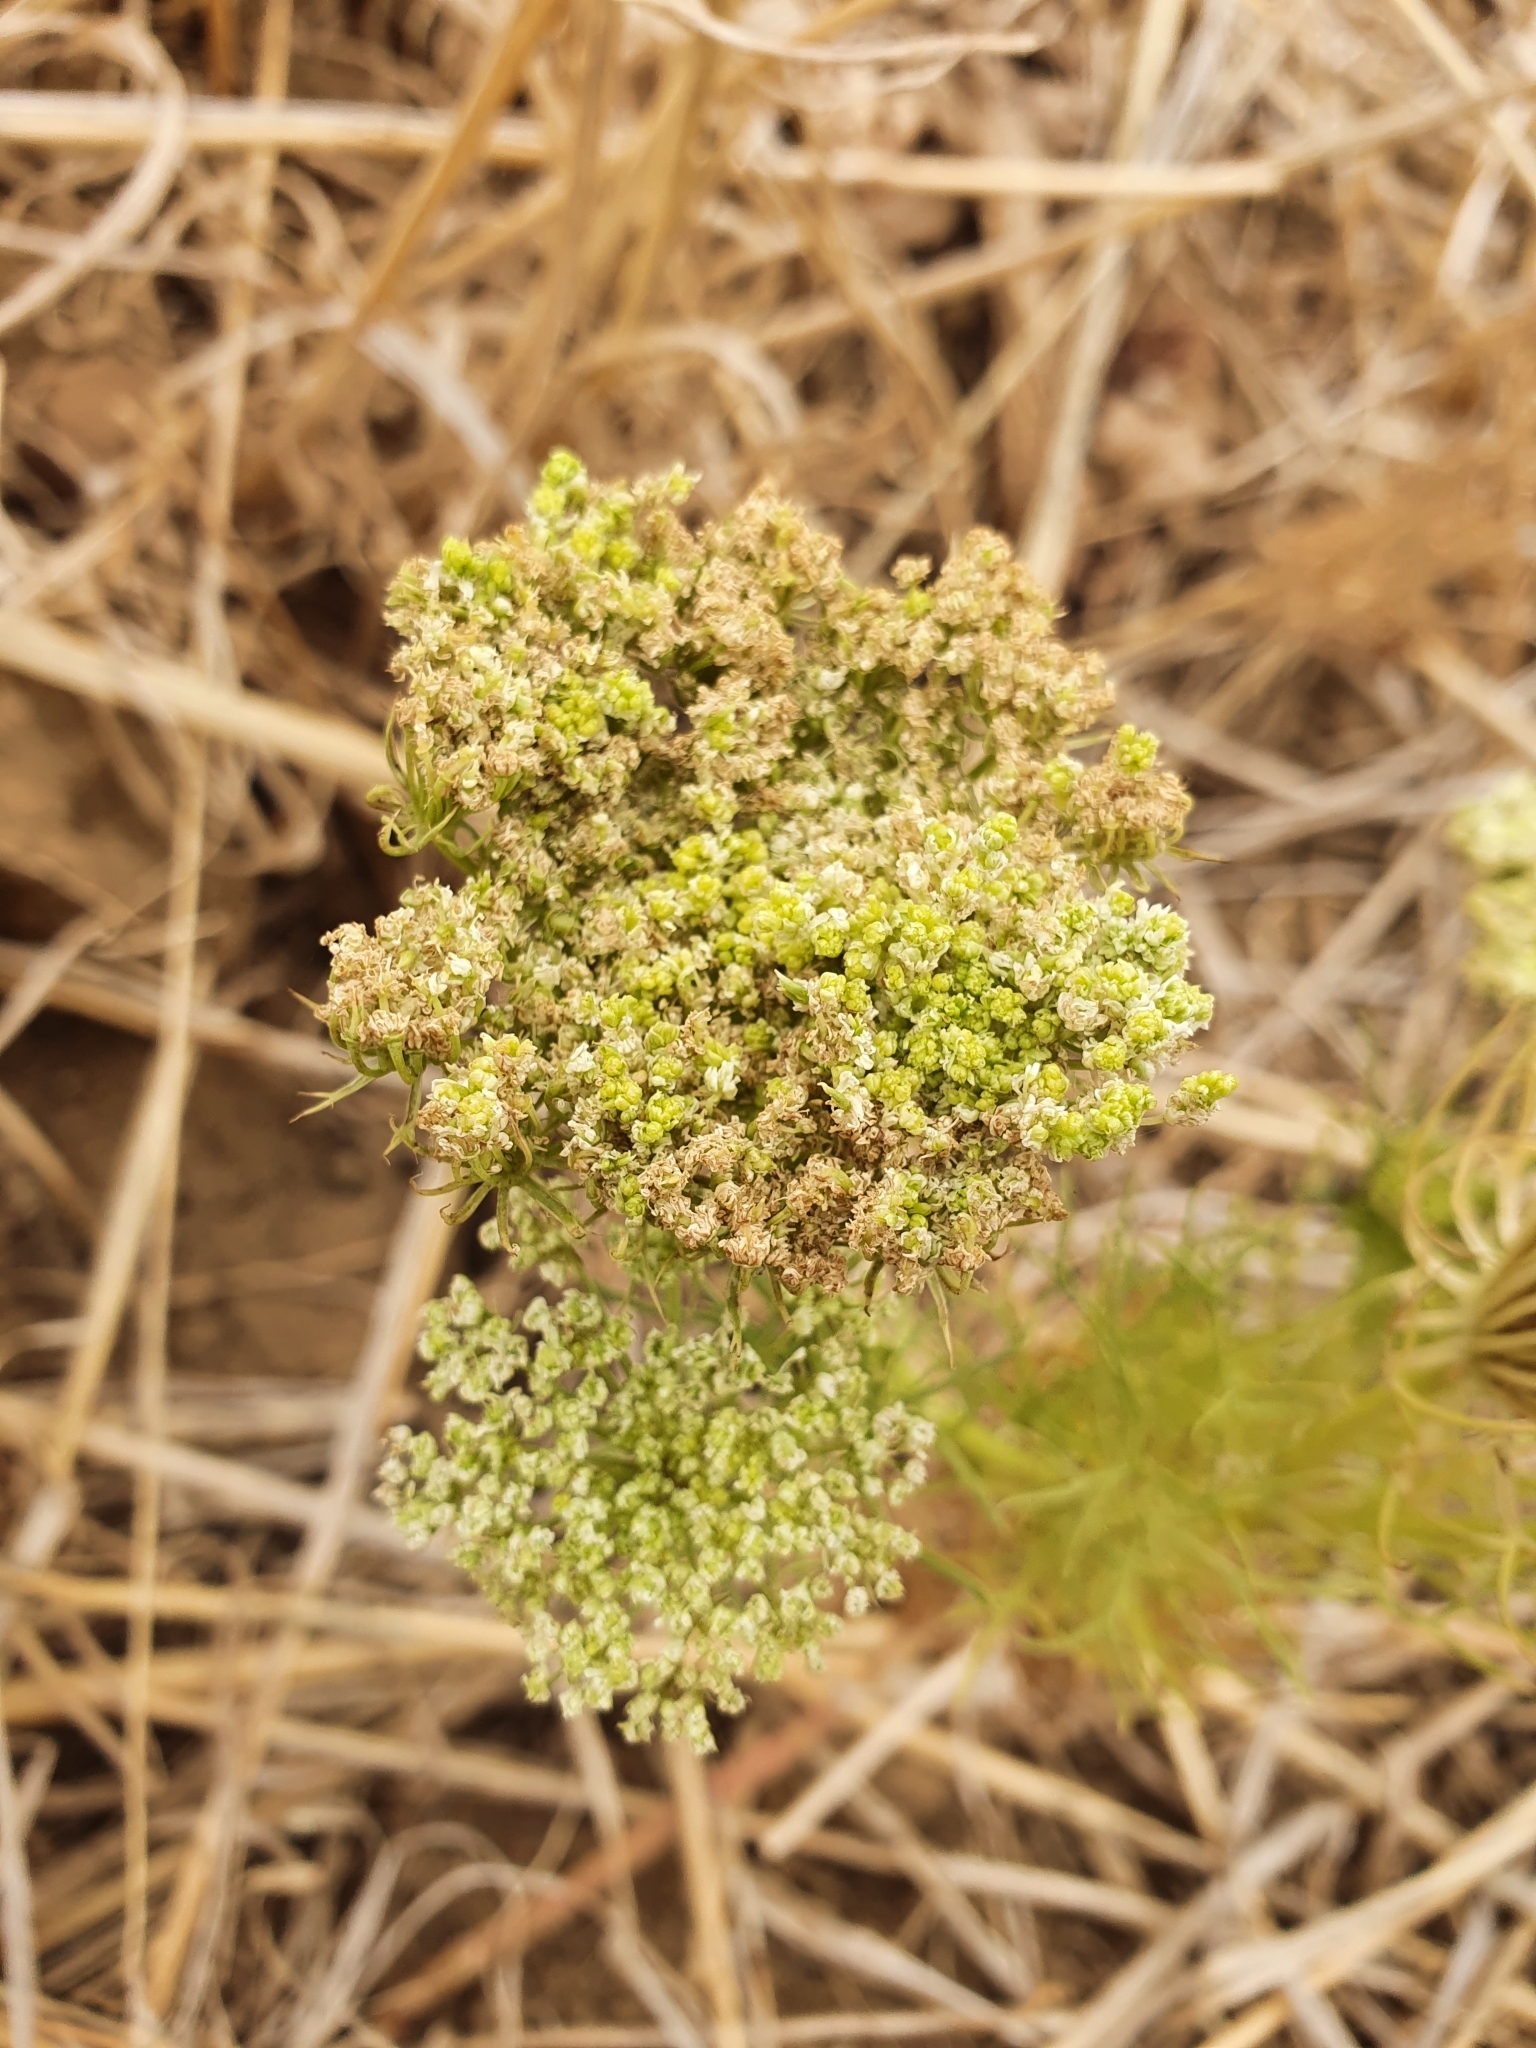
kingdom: Plantae
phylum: Tracheophyta
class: Magnoliopsida
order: Apiales
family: Apiaceae
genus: Daucus
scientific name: Daucus carota
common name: Wild carrot
